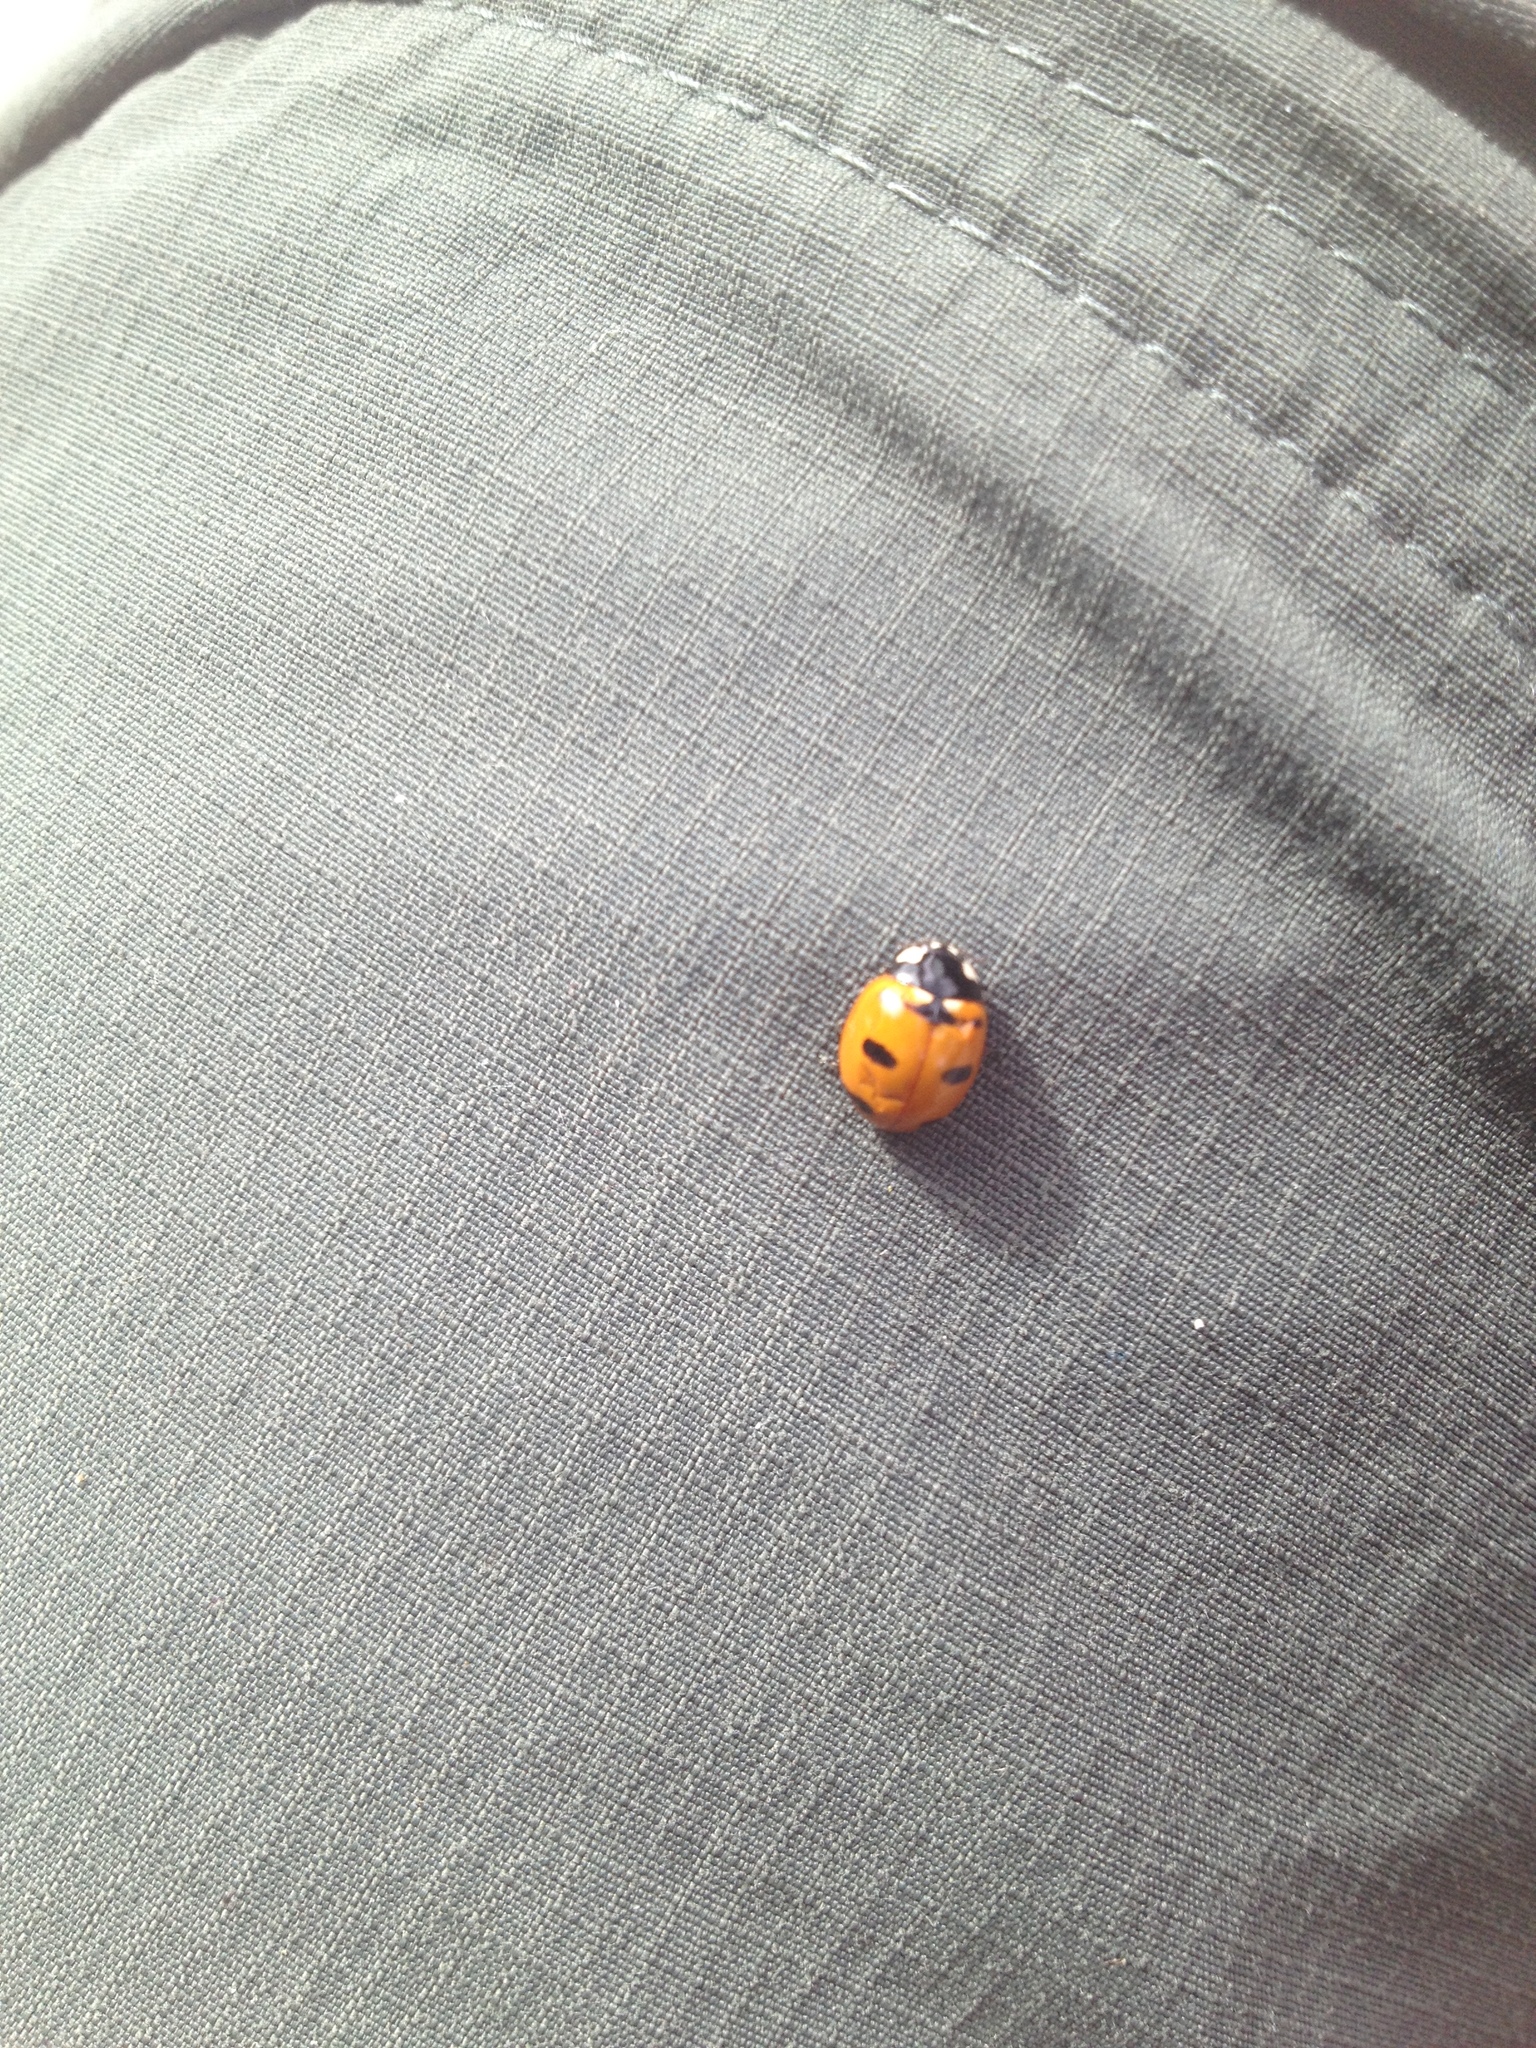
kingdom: Animalia
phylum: Arthropoda
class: Insecta
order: Coleoptera
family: Coccinellidae
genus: Coccinella
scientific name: Coccinella transversoguttata
